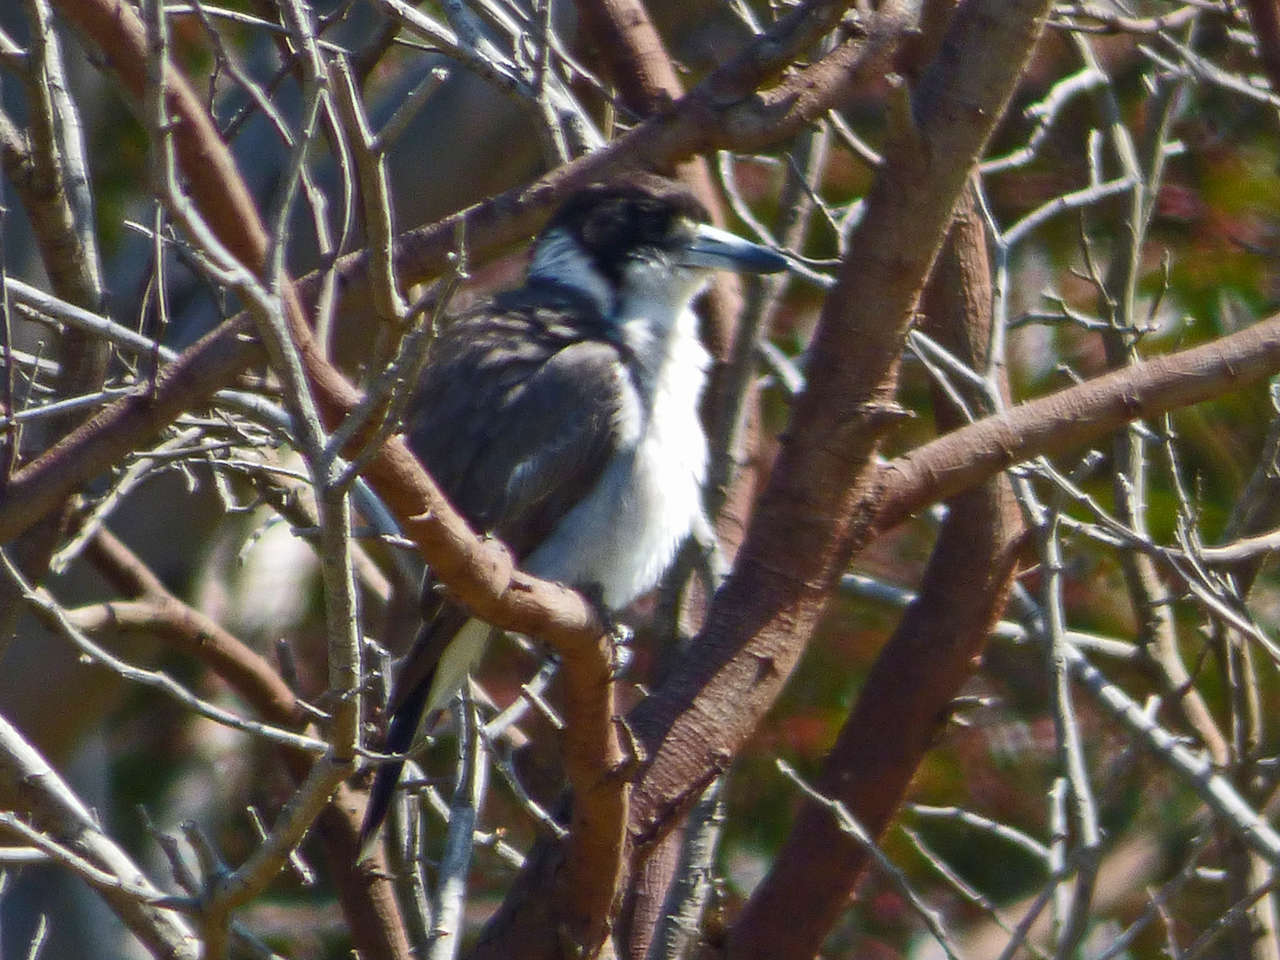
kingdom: Animalia
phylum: Chordata
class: Aves
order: Passeriformes
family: Cracticidae
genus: Cracticus
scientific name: Cracticus torquatus
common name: Grey butcherbird
